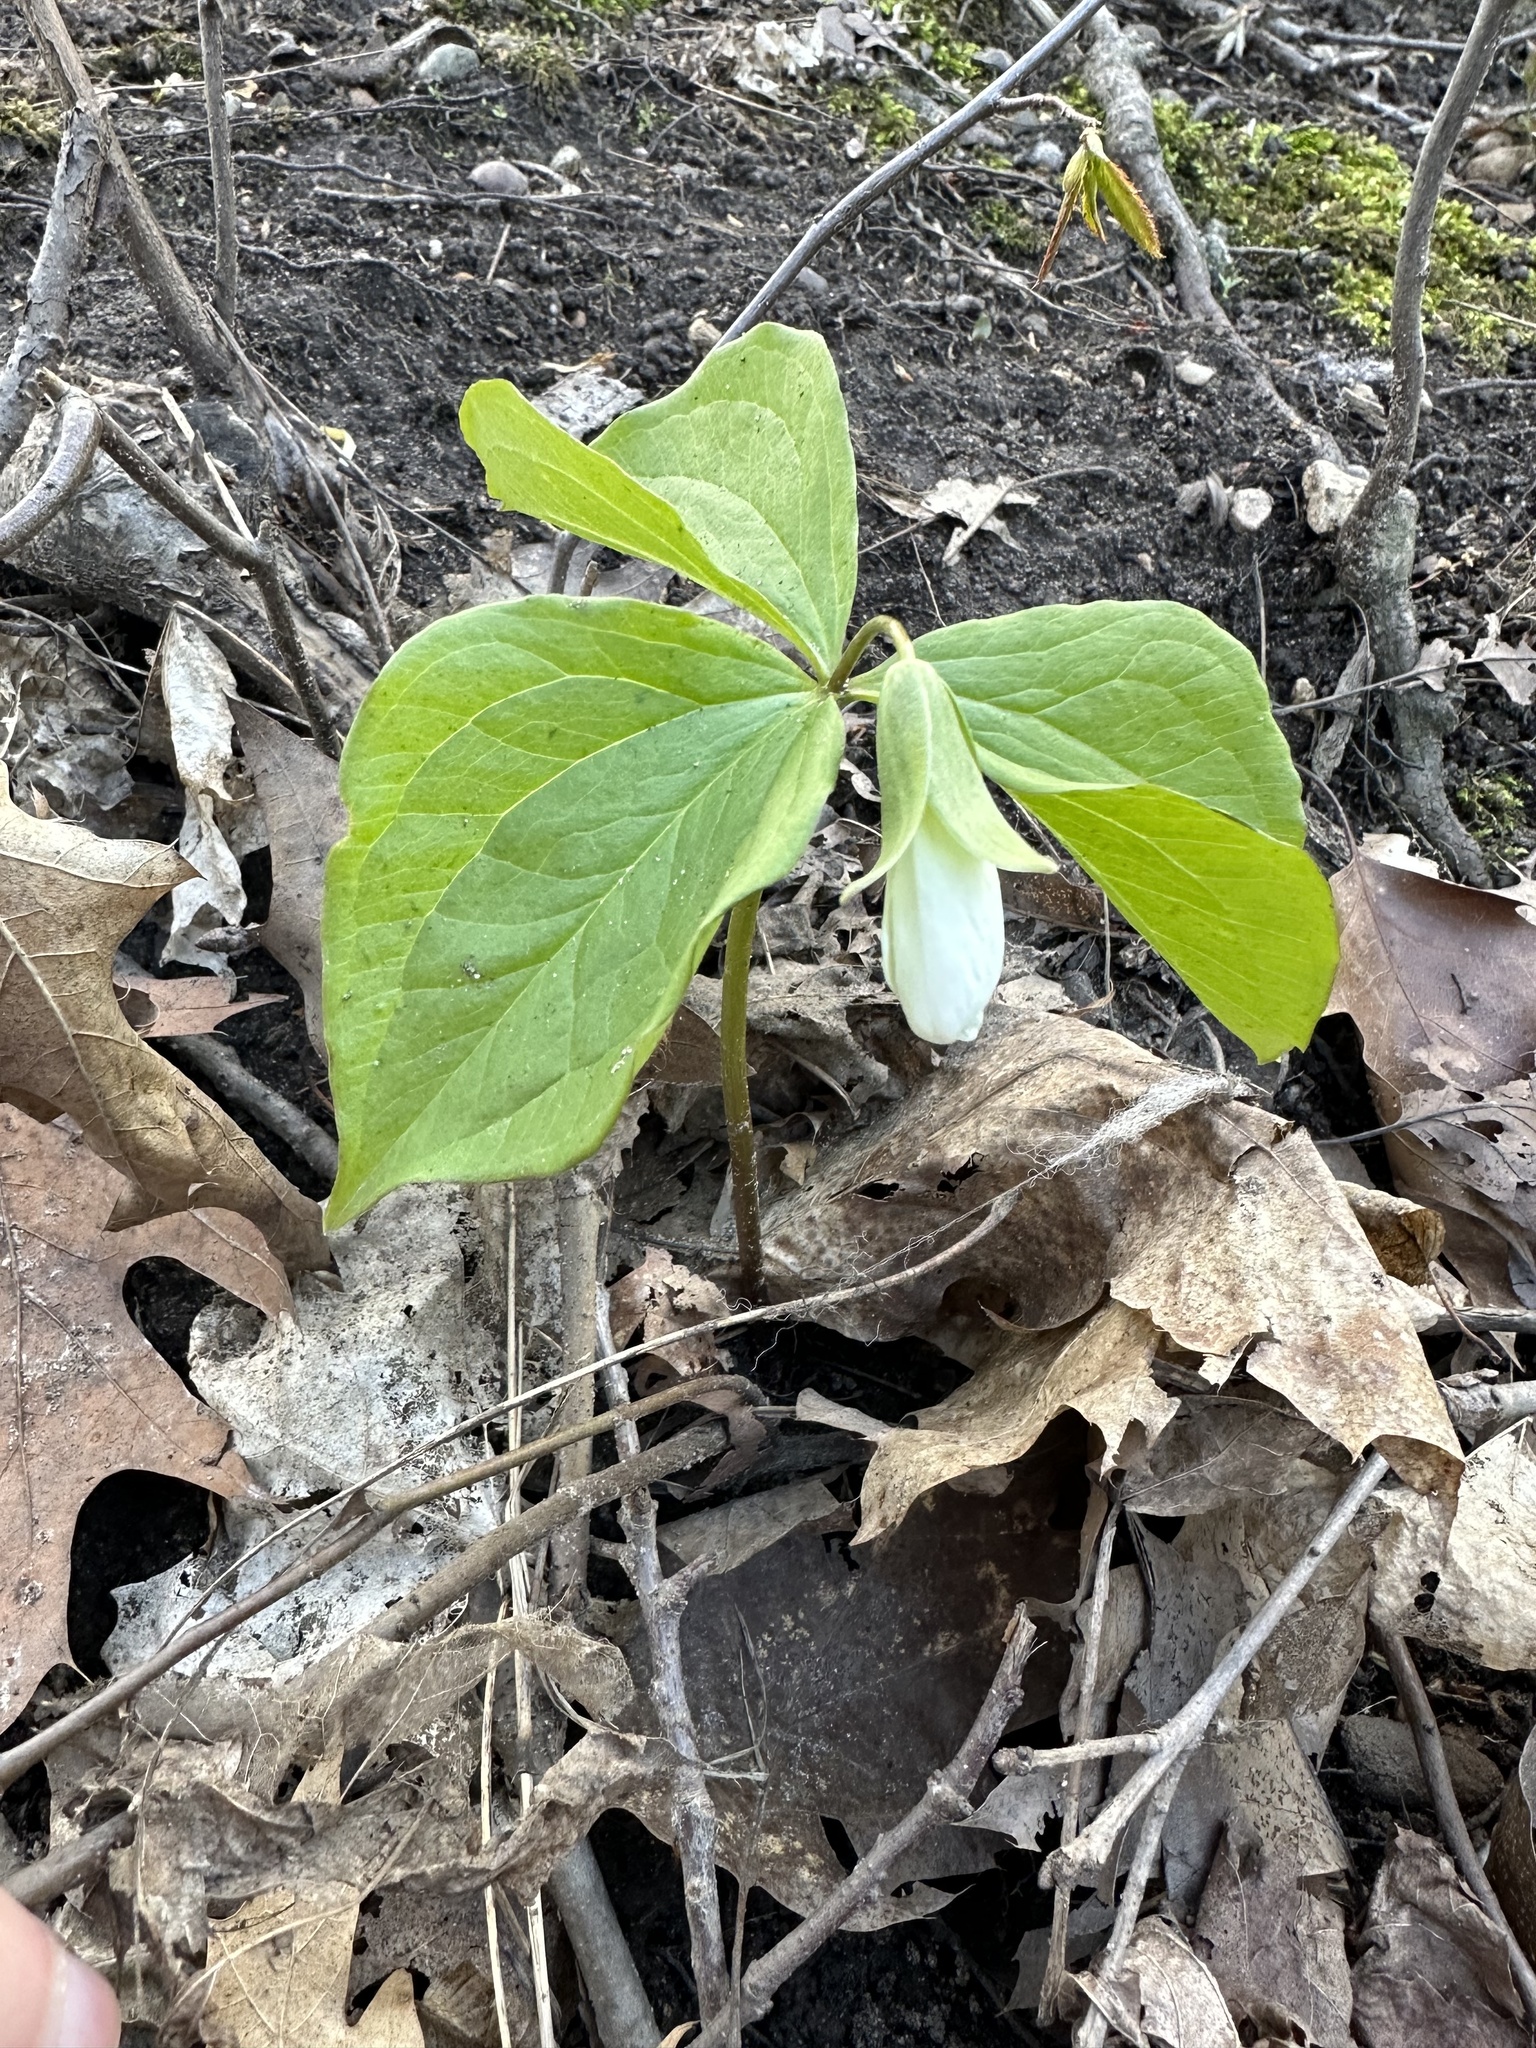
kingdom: Plantae
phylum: Tracheophyta
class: Liliopsida
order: Liliales
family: Melanthiaceae
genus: Trillium
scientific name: Trillium grandiflorum
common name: Great white trillium
